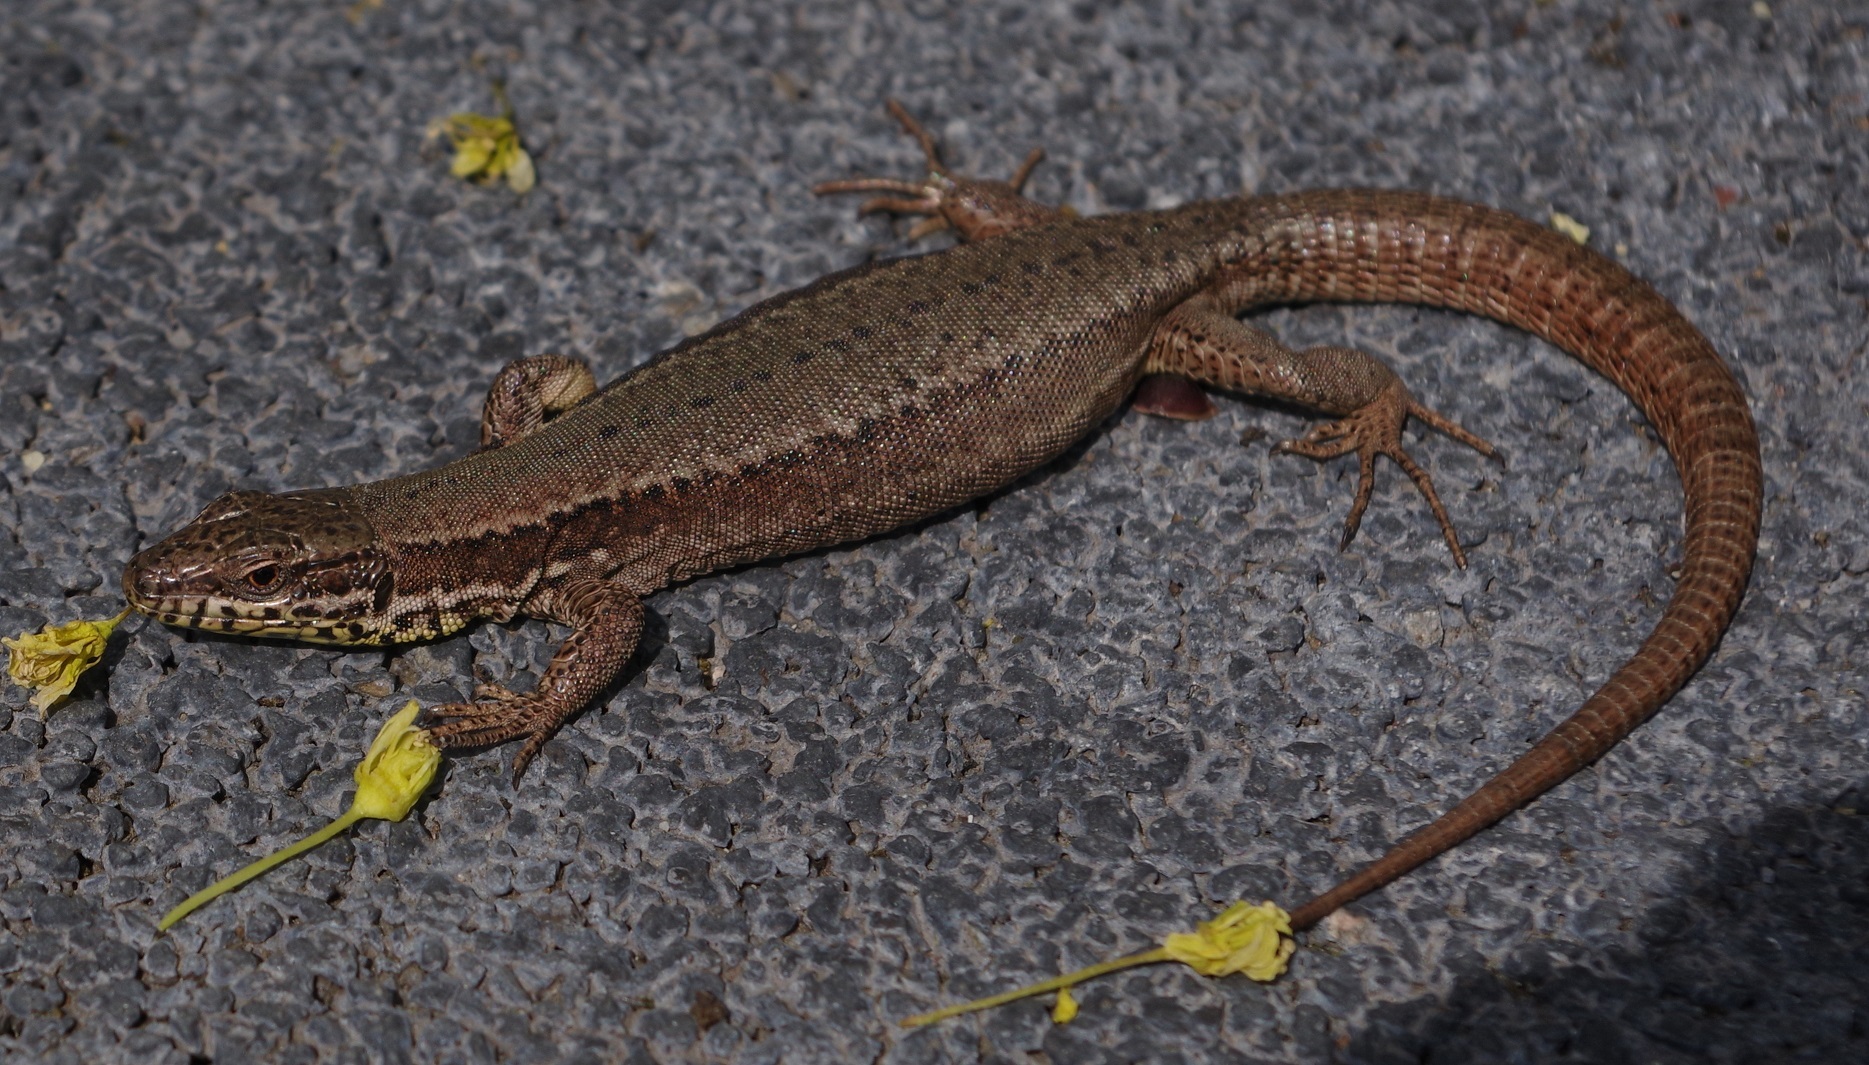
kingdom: Animalia
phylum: Chordata
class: Squamata
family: Lacertidae
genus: Podarcis
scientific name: Podarcis muralis
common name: Common wall lizard
